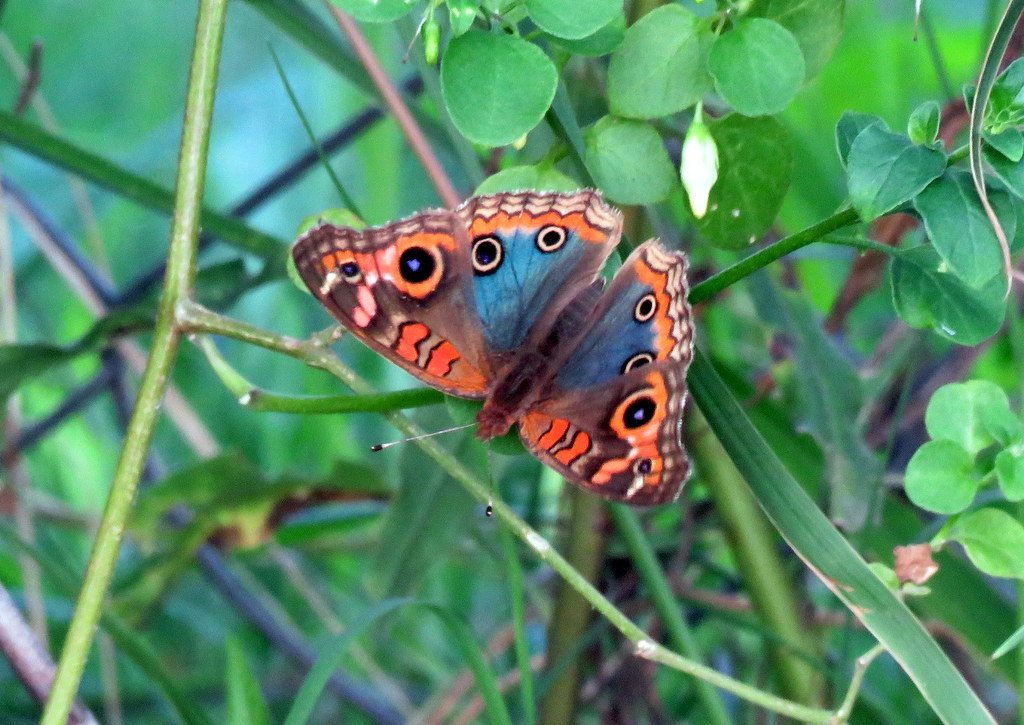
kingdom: Animalia
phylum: Arthropoda
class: Insecta
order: Lepidoptera
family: Nymphalidae
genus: Junonia
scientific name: Junonia lavinia
